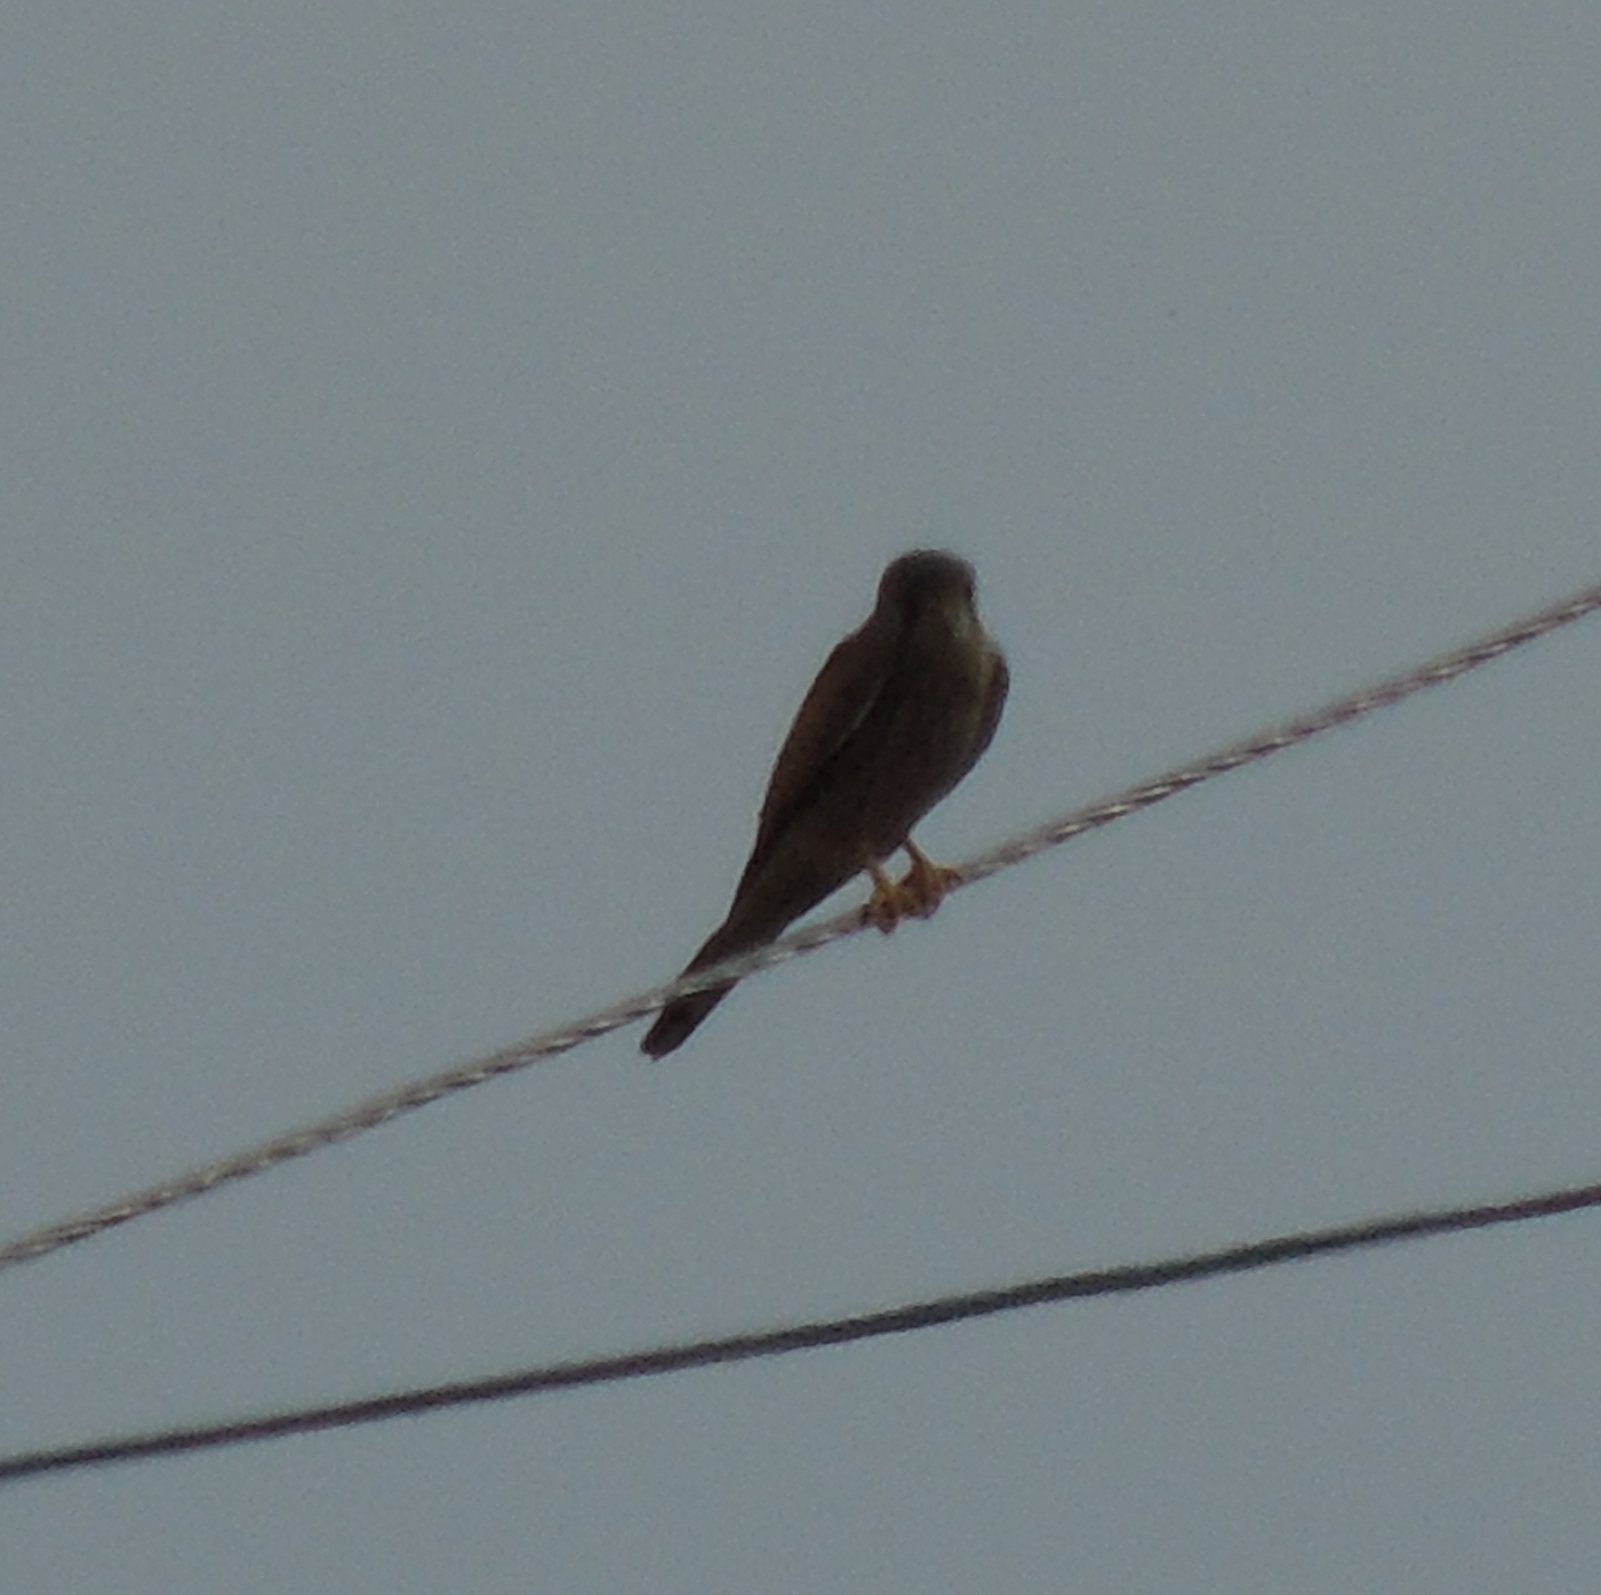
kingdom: Animalia
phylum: Chordata
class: Aves
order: Falconiformes
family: Falconidae
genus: Falco
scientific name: Falco tinnunculus
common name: Common kestrel
